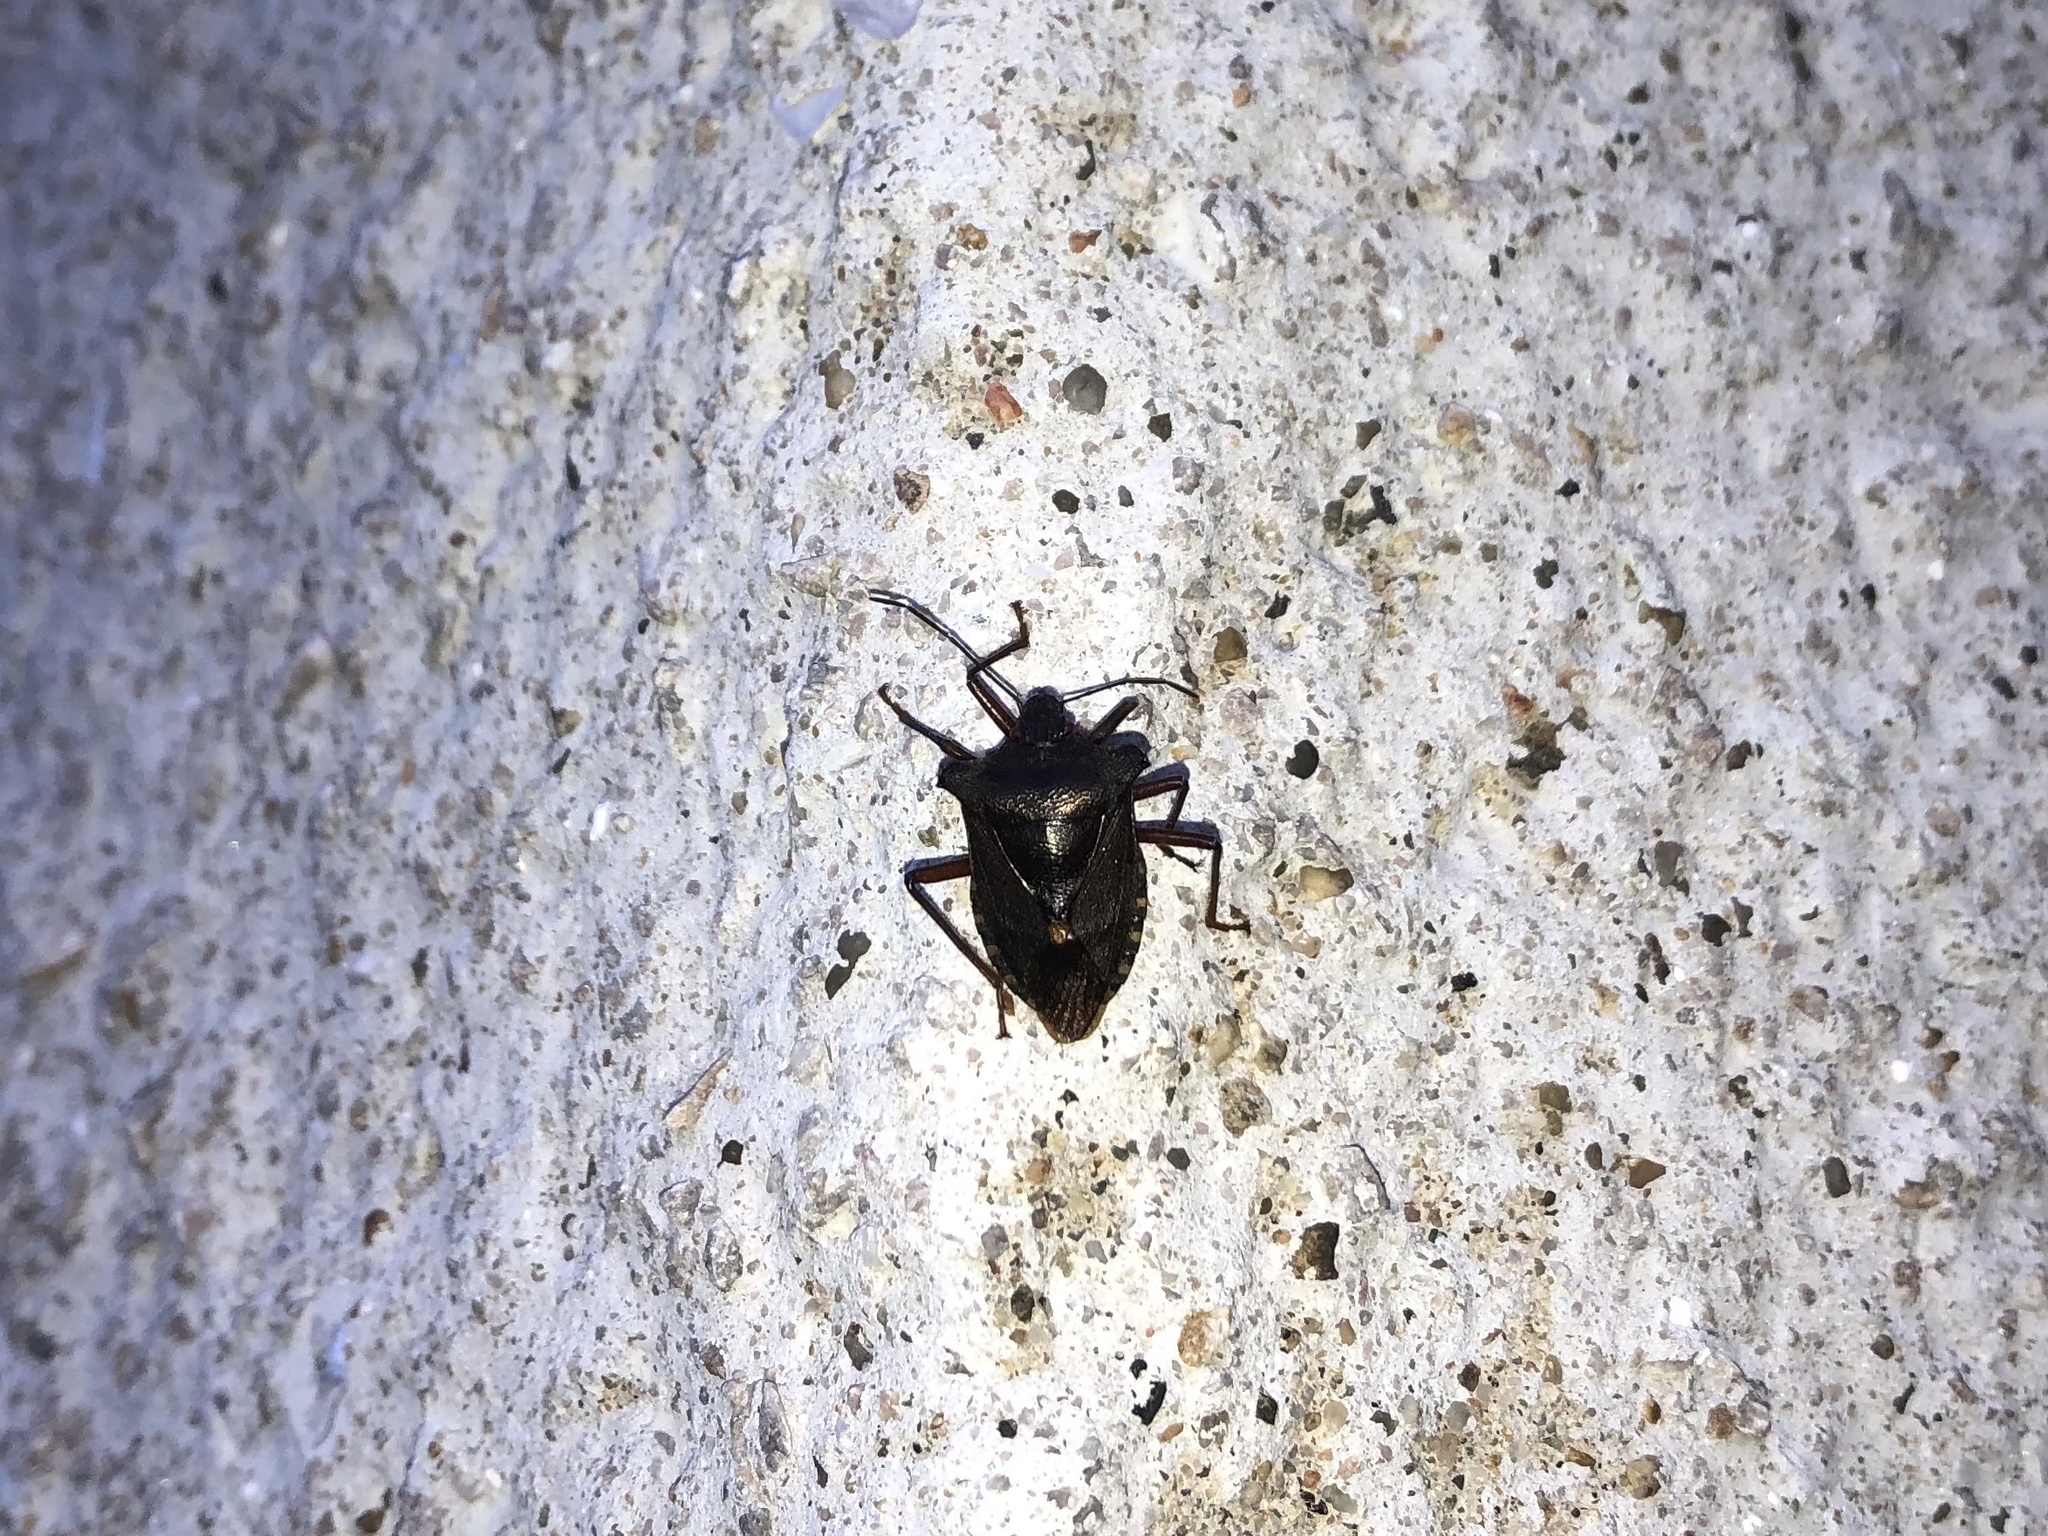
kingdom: Animalia
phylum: Arthropoda
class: Insecta
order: Hemiptera
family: Pentatomidae
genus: Pentatoma
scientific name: Pentatoma rufipes
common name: Forest bug
